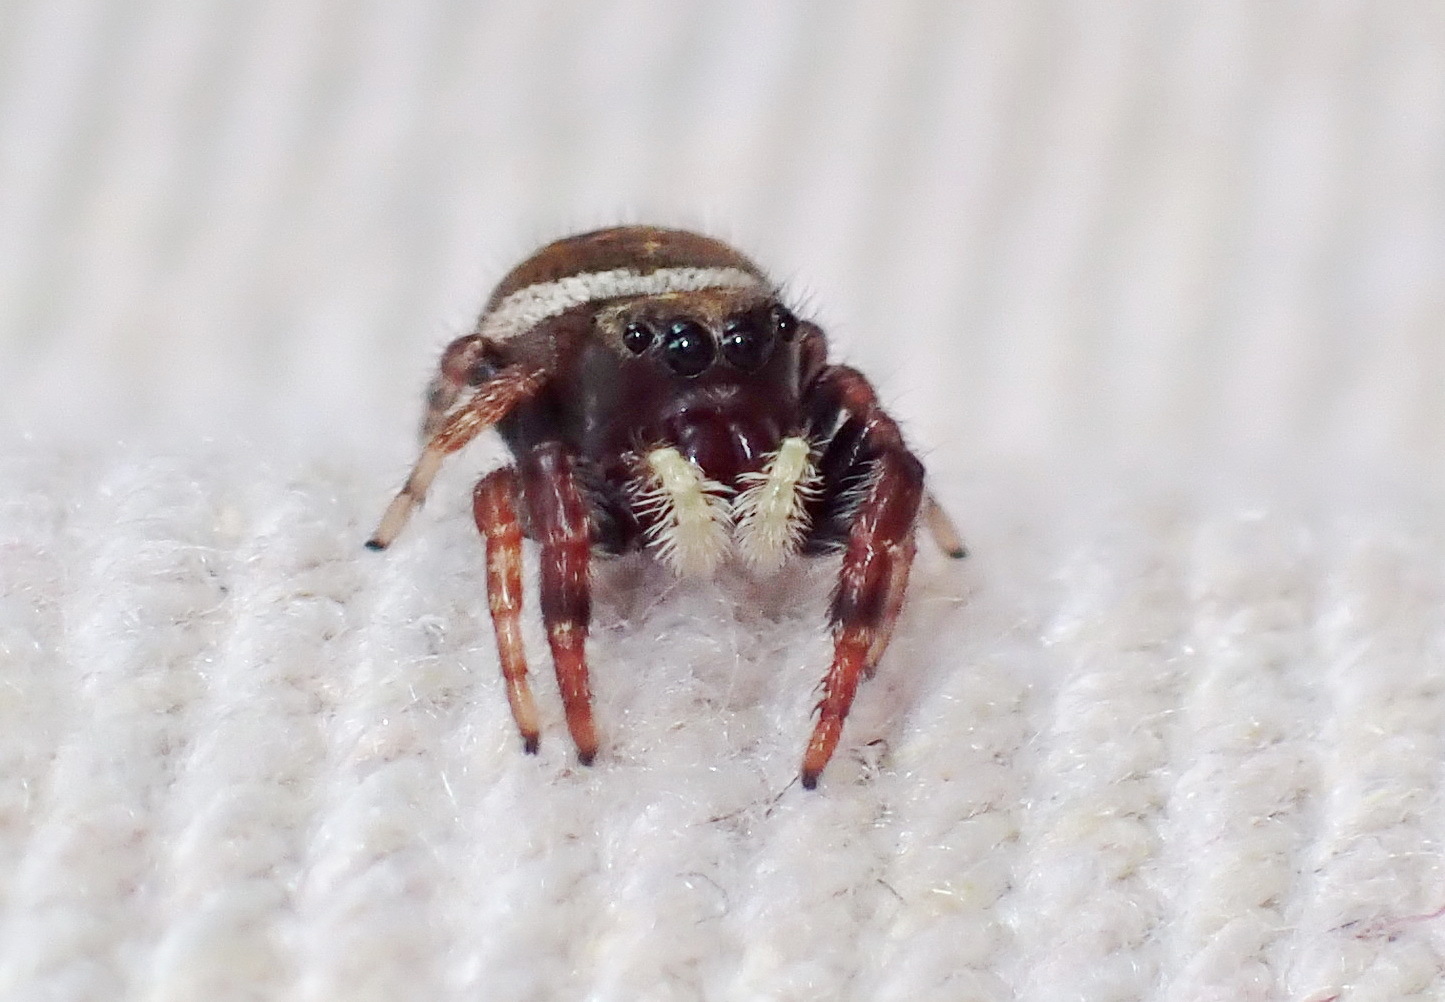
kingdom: Animalia
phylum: Arthropoda
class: Arachnida
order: Araneae
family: Salticidae
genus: Phidippus
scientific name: Phidippus whitmani
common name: Whitman's jumping spider
